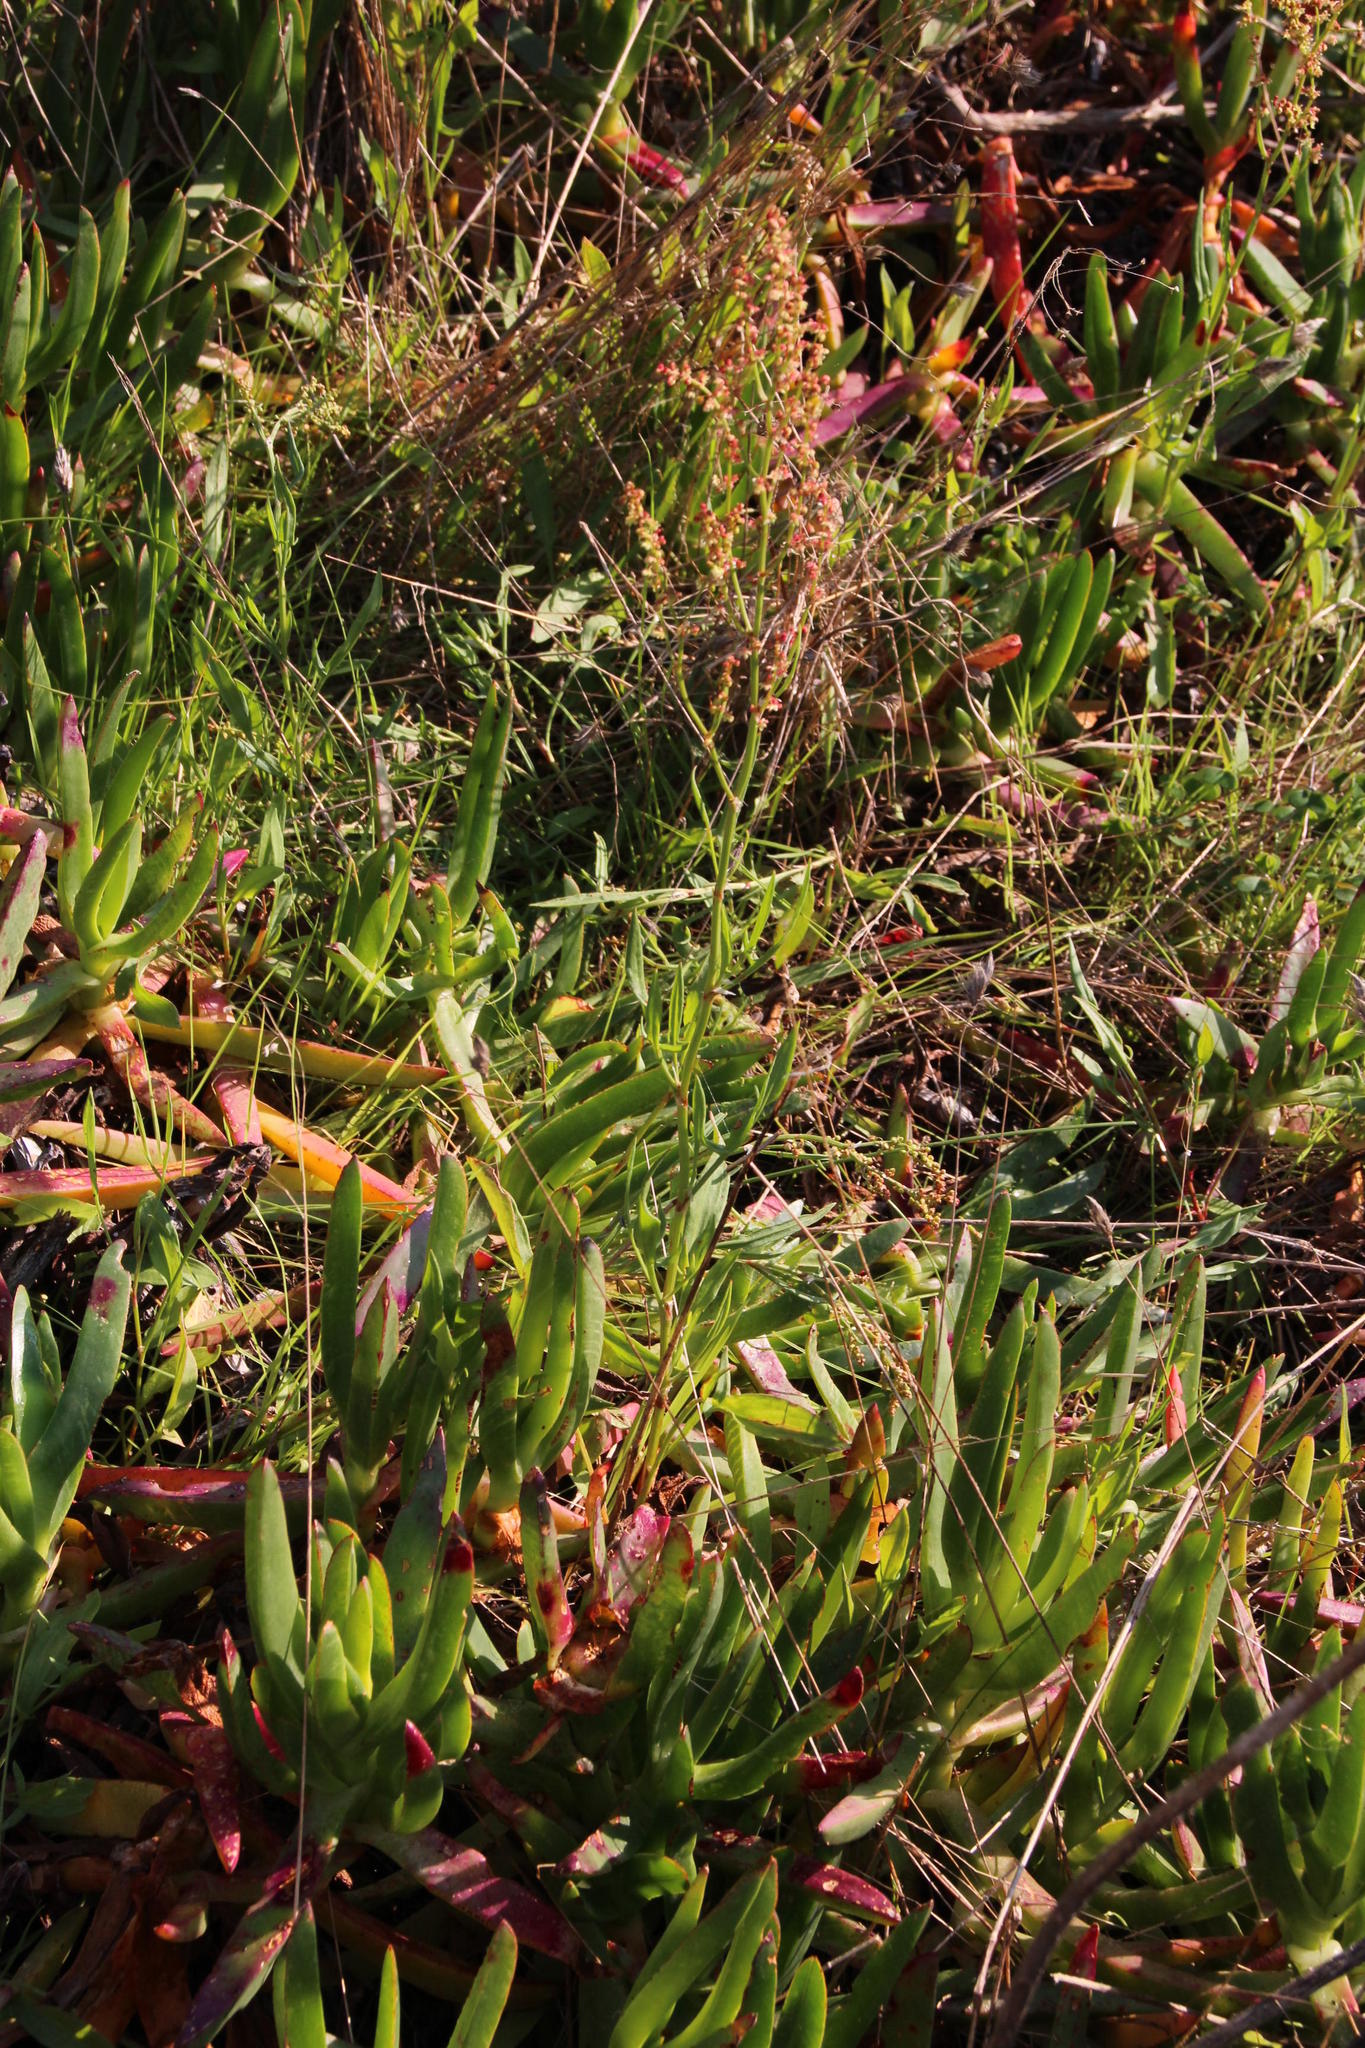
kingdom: Plantae
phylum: Tracheophyta
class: Magnoliopsida
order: Caryophyllales
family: Polygonaceae
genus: Rumex
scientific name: Rumex acetosella
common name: Common sheep sorrel
